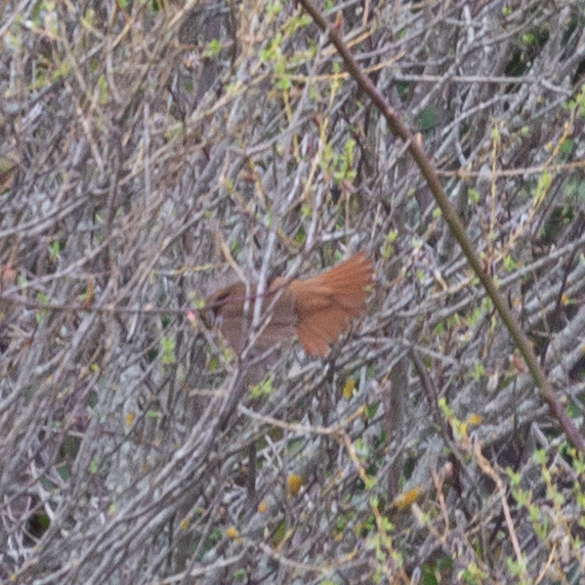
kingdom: Animalia
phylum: Chordata
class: Aves
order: Passeriformes
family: Muscicapidae
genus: Luscinia
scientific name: Luscinia megarhynchos
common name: Common nightingale
